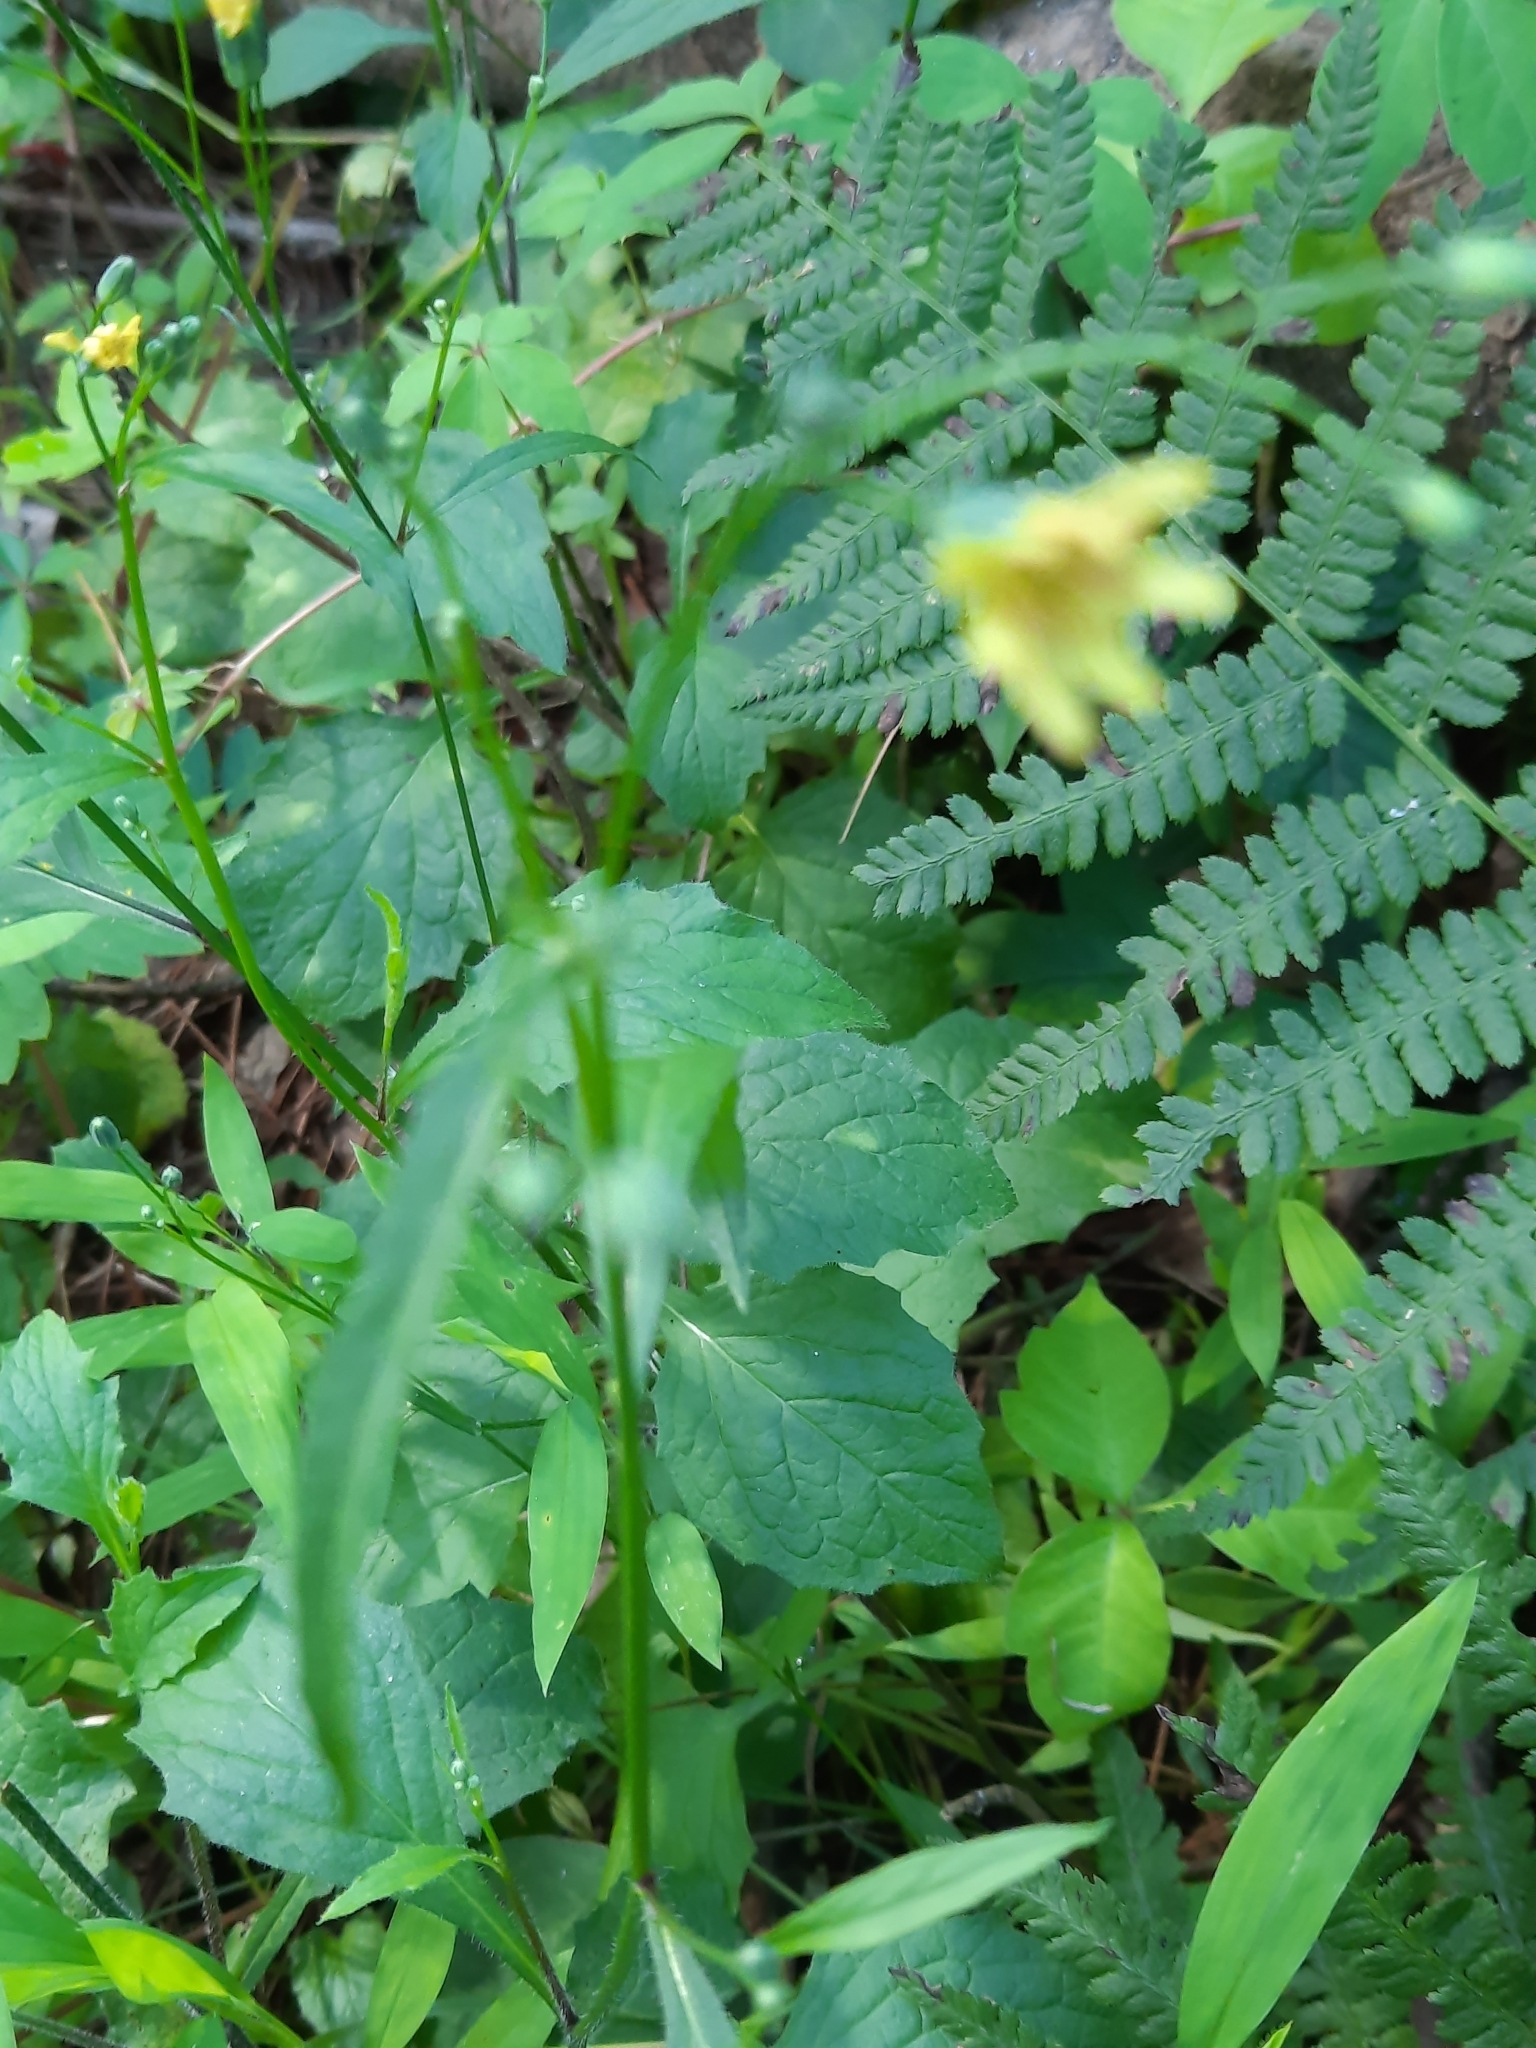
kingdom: Plantae
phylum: Tracheophyta
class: Magnoliopsida
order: Asterales
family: Asteraceae
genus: Lapsana
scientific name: Lapsana communis
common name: Nipplewort
